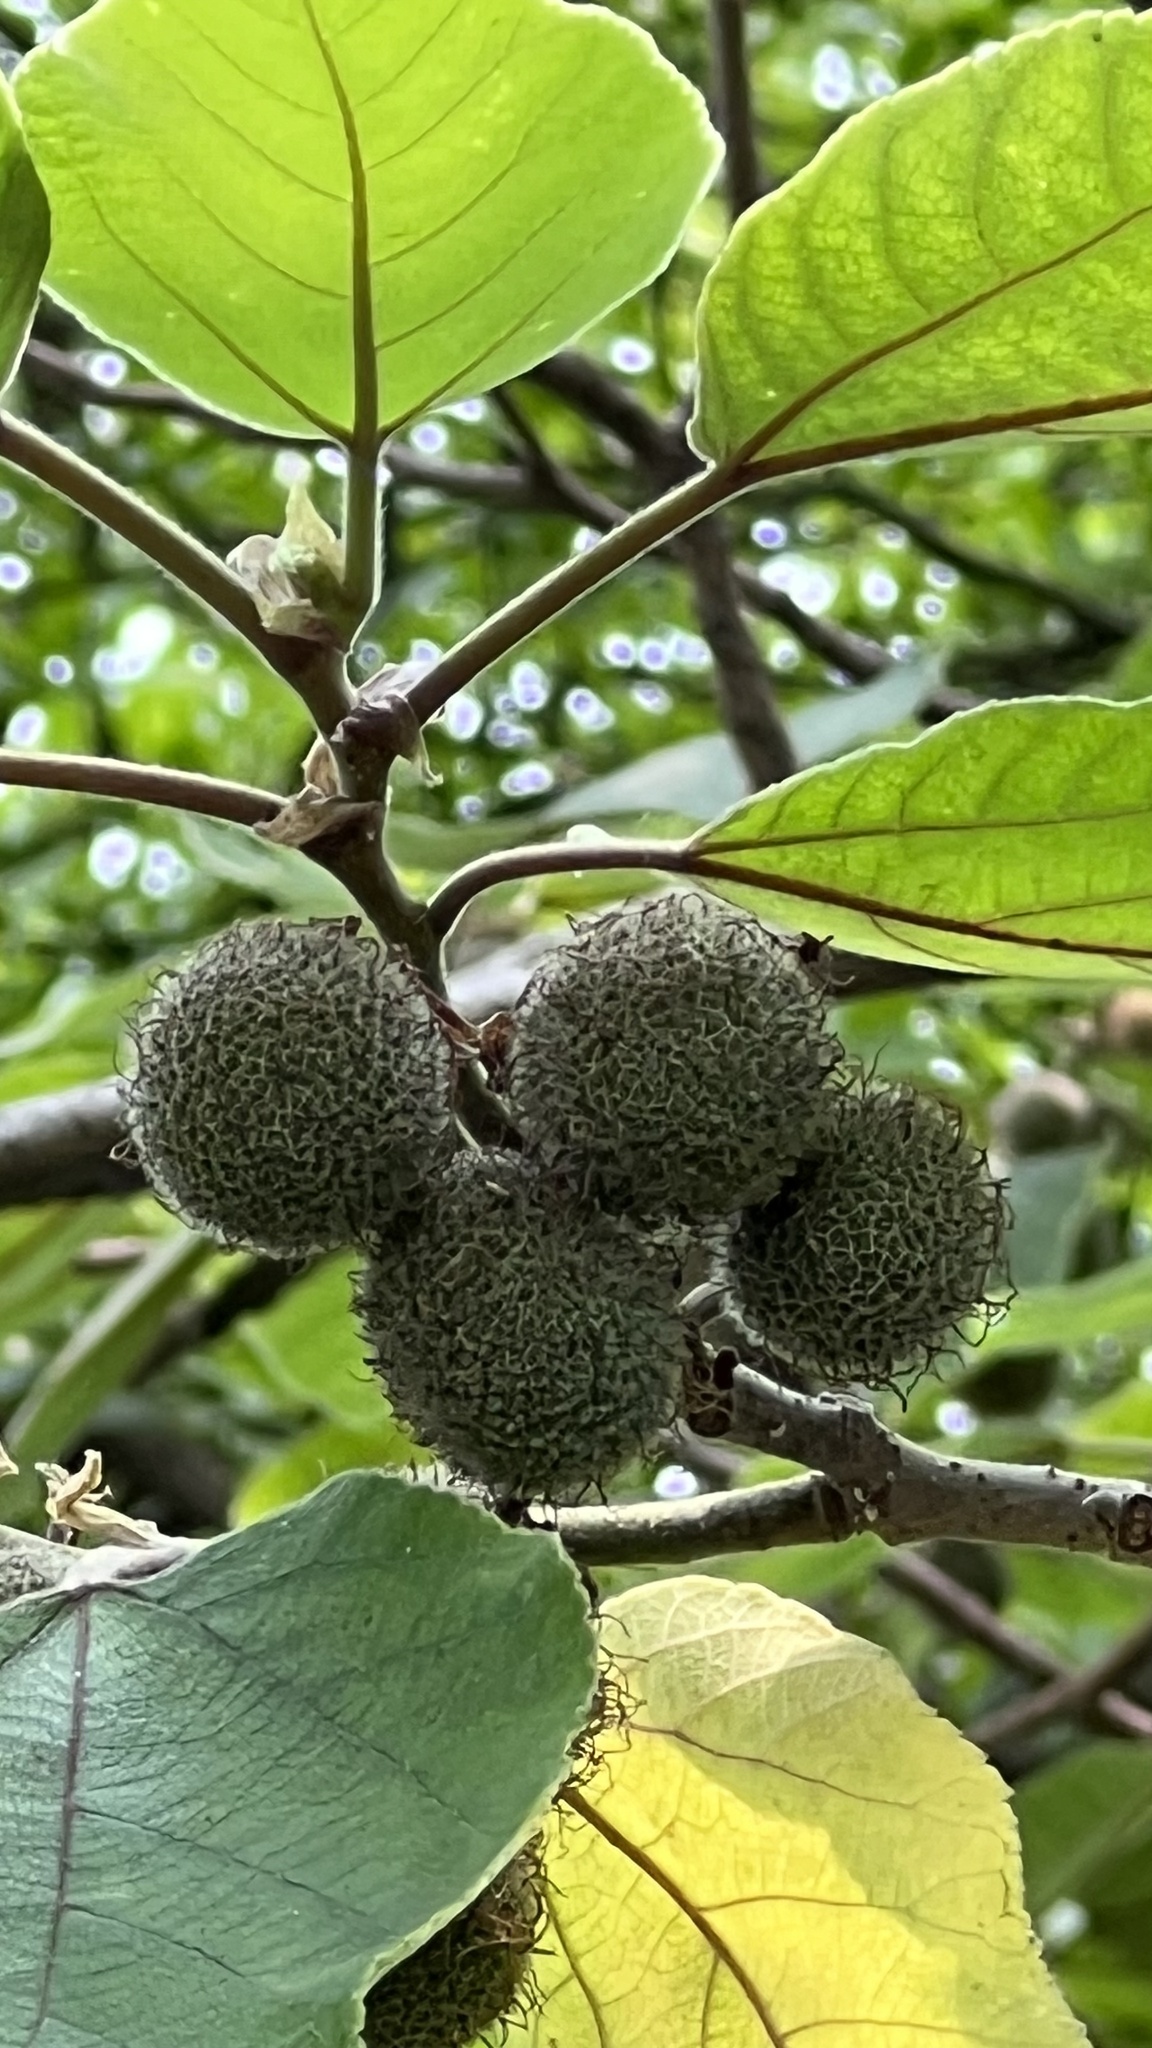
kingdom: Plantae
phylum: Tracheophyta
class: Magnoliopsida
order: Rosales
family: Moraceae
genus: Broussonetia
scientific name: Broussonetia papyrifera
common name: Paper mulberry
